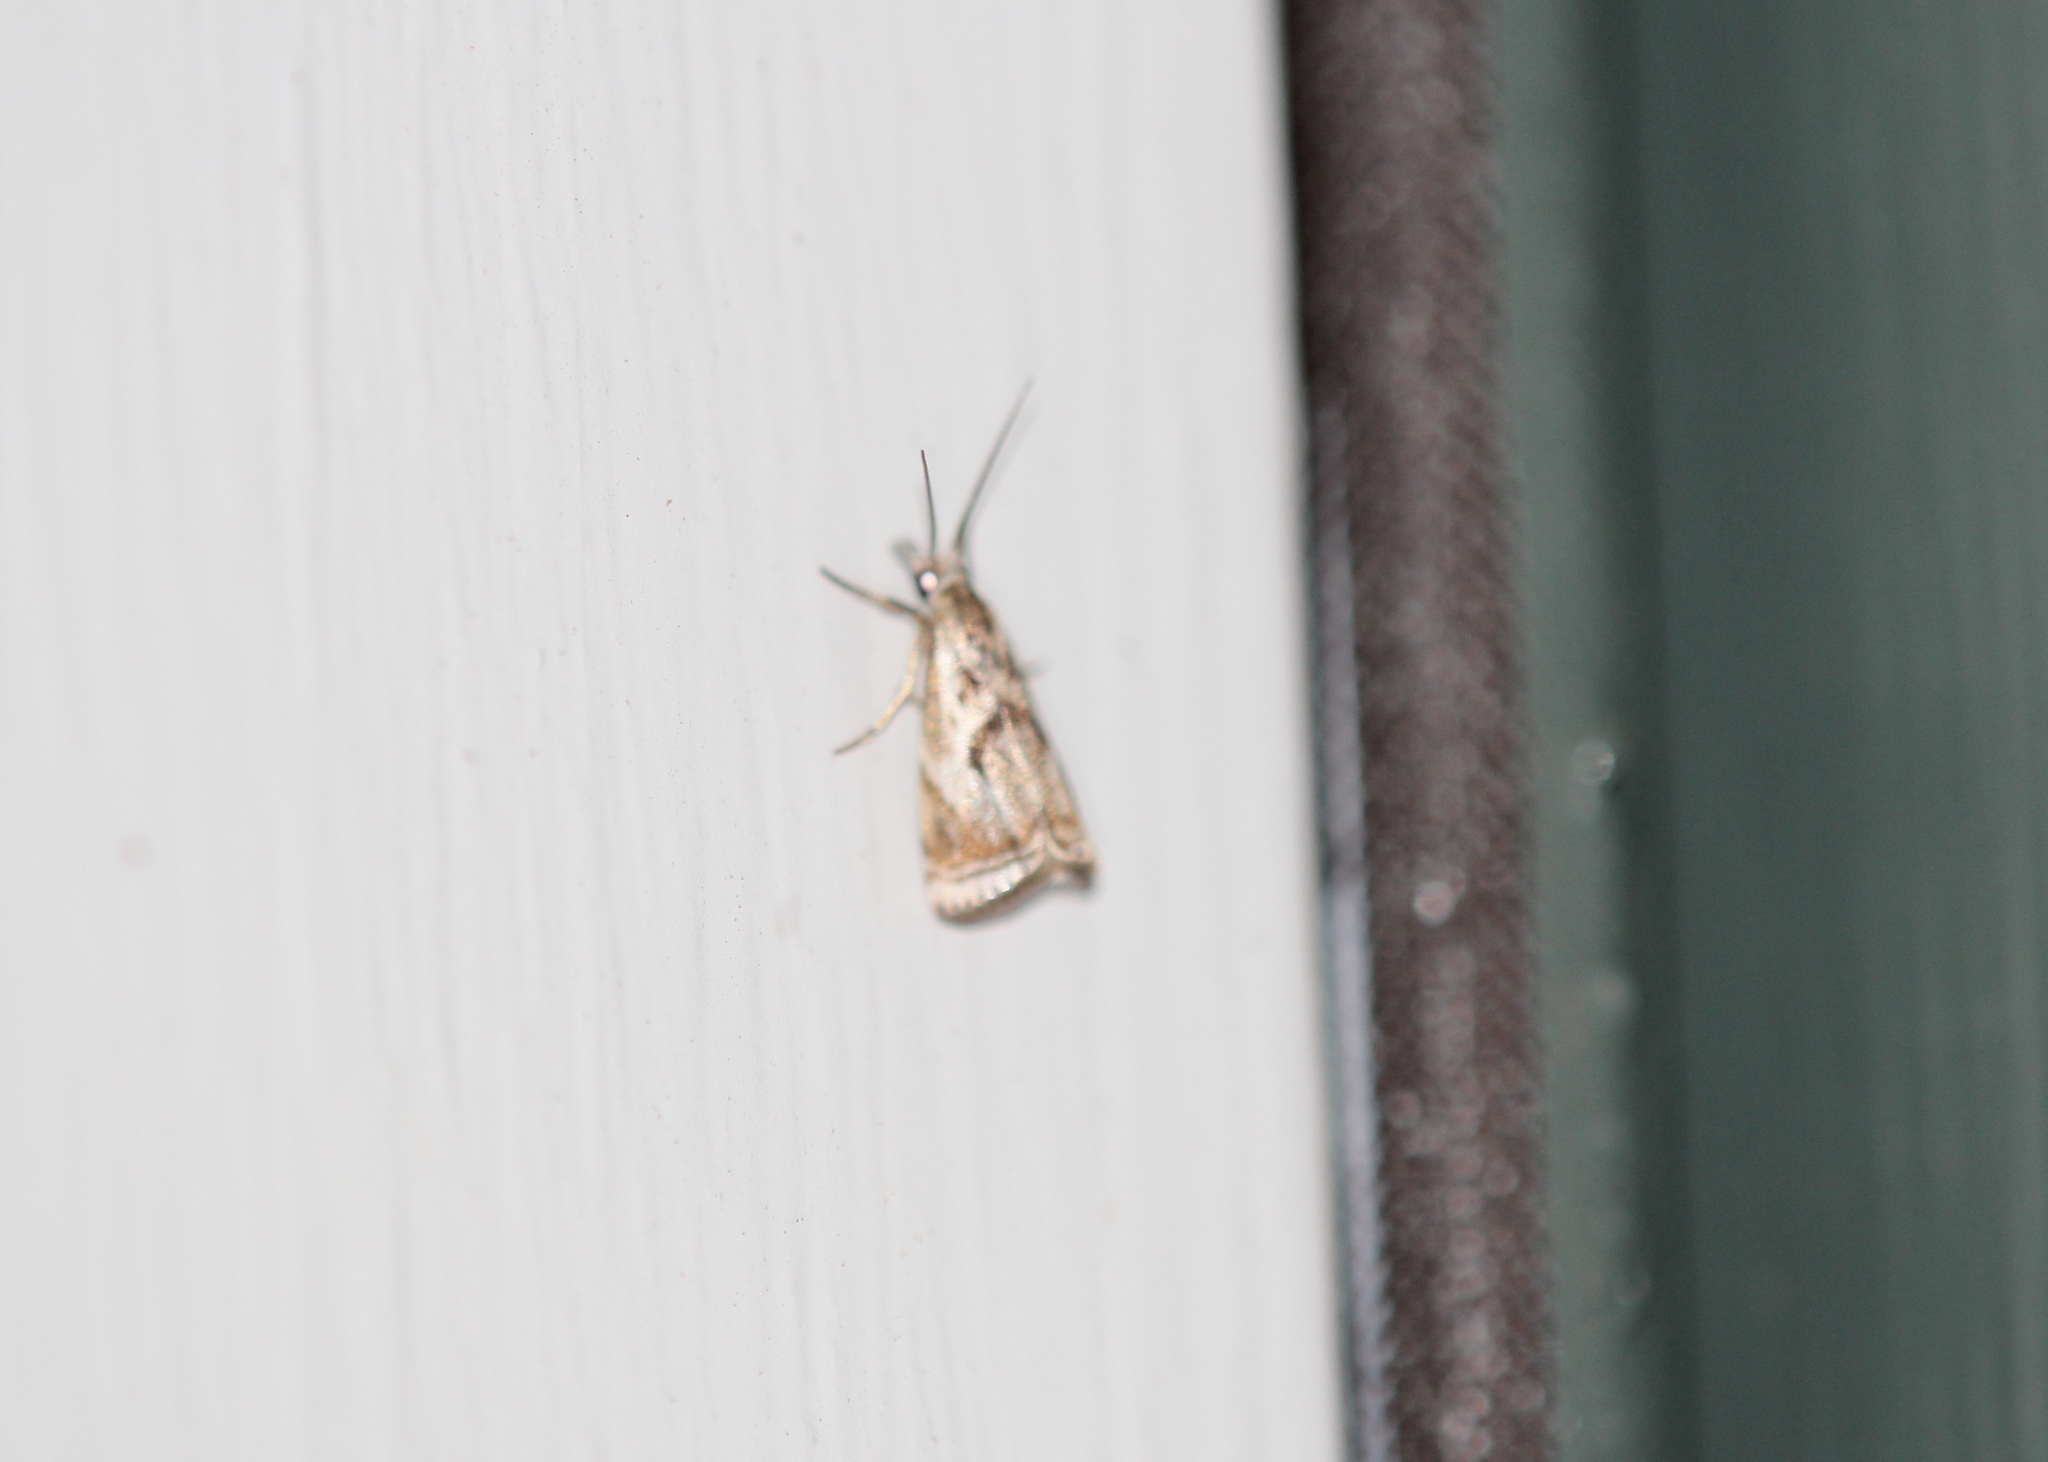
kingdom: Animalia
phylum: Arthropoda
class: Insecta
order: Lepidoptera
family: Crambidae
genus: Microcrambus
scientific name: Microcrambus elegans
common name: Elegant grass-veneer
